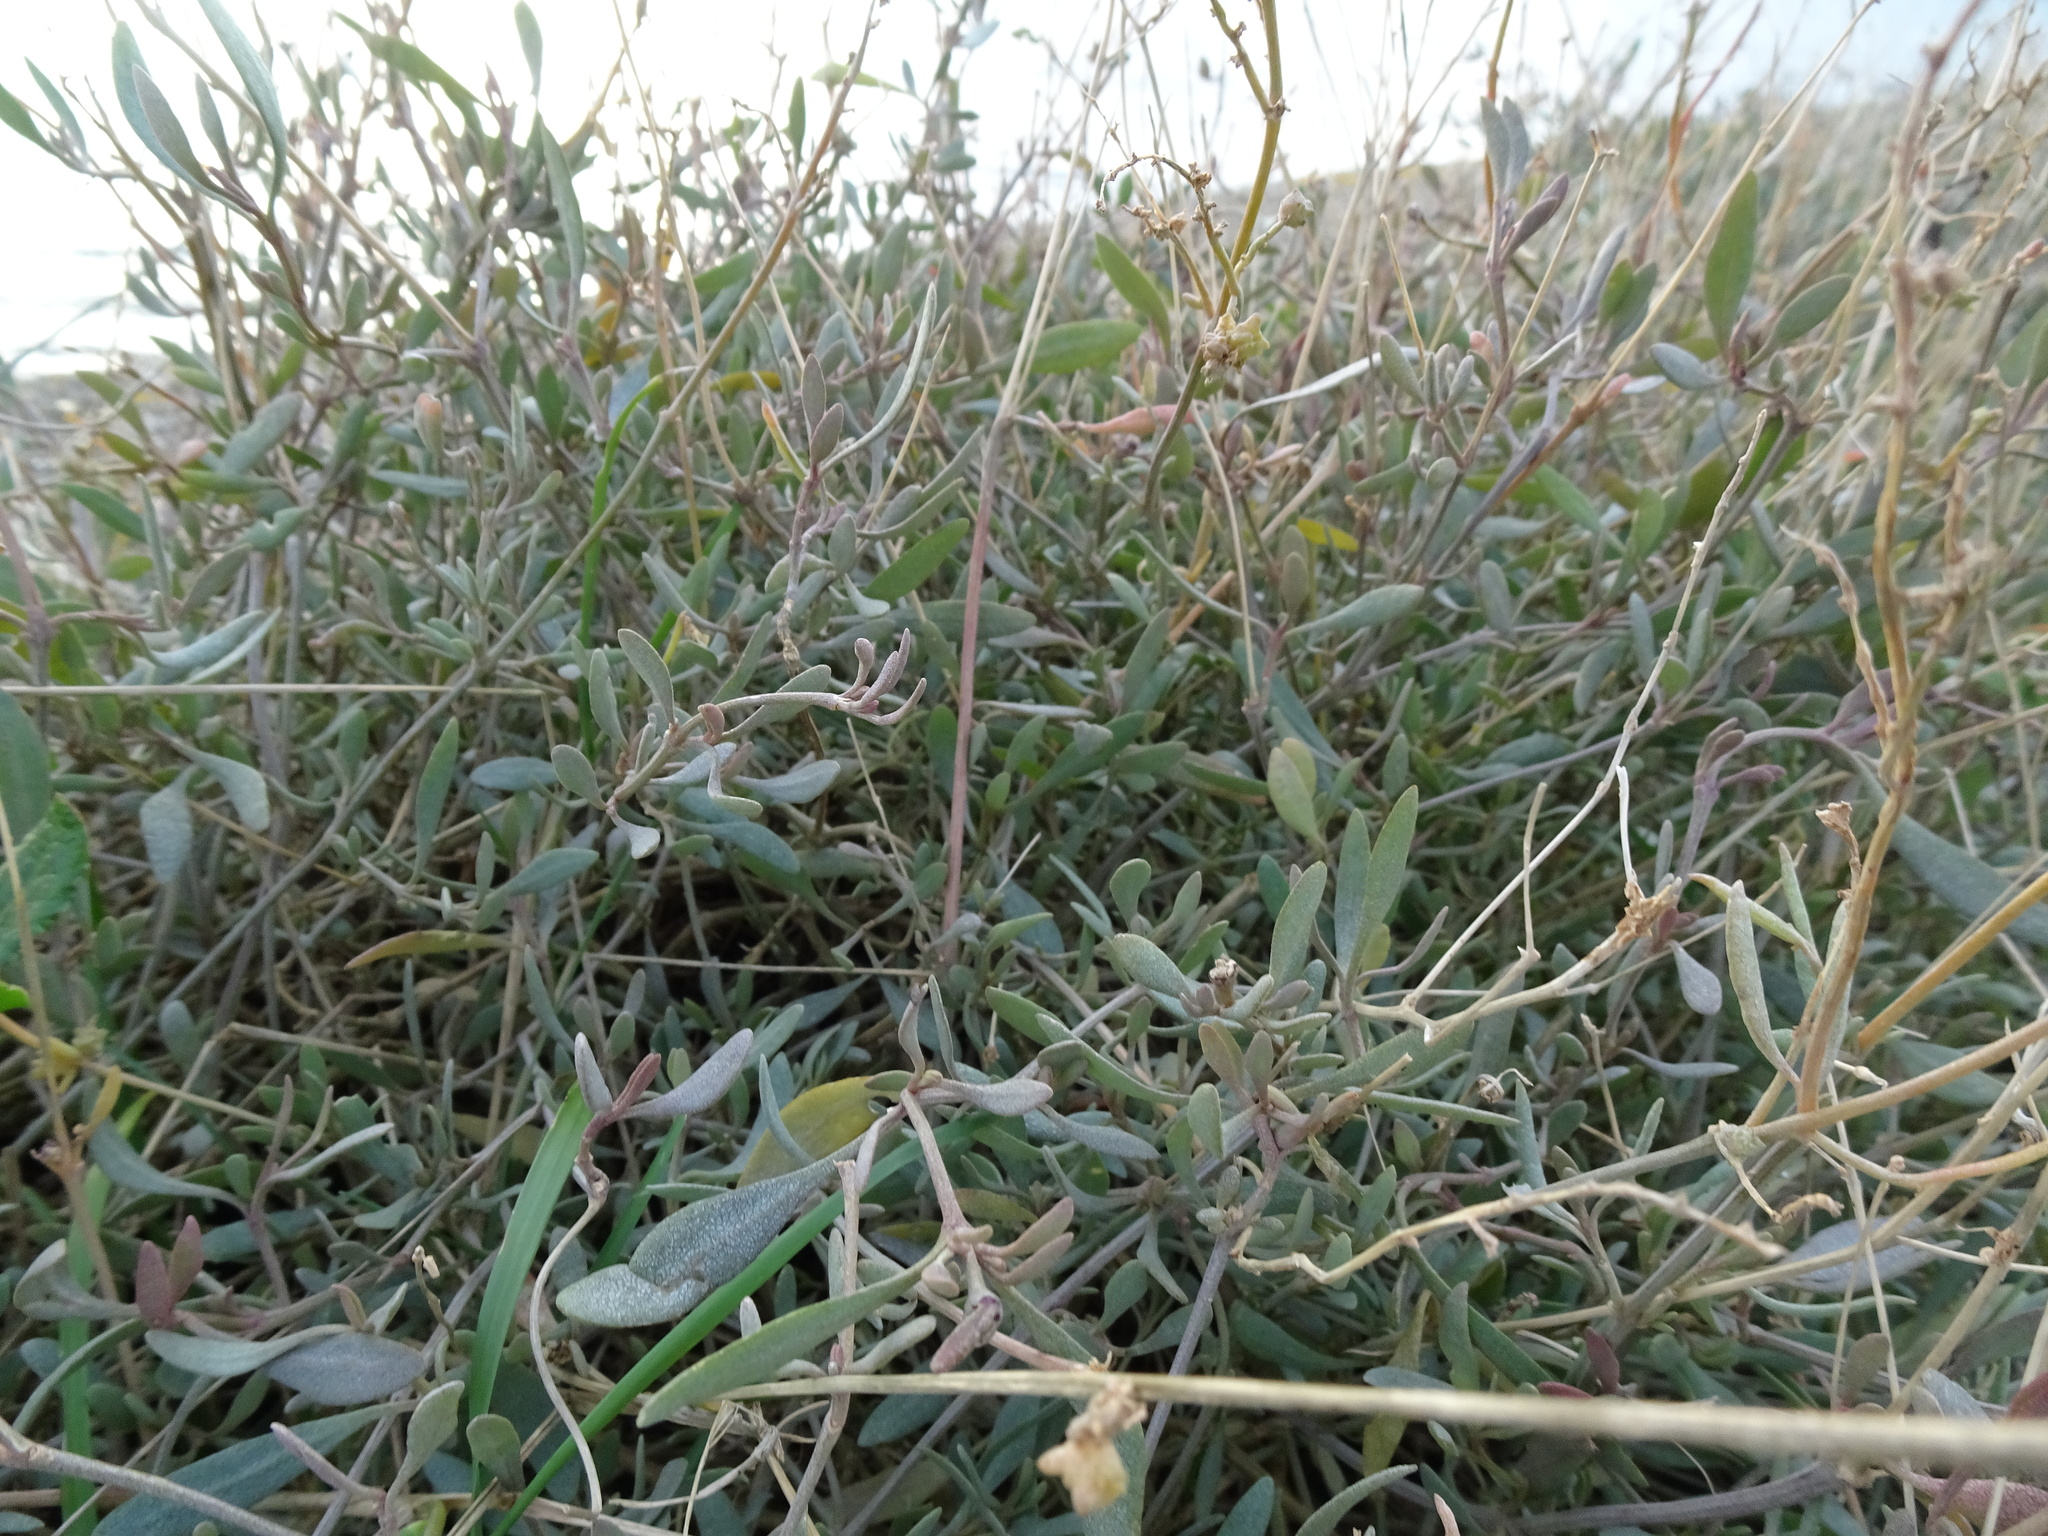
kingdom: Plantae
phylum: Tracheophyta
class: Magnoliopsida
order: Caryophyllales
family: Amaranthaceae
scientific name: Amaranthaceae
